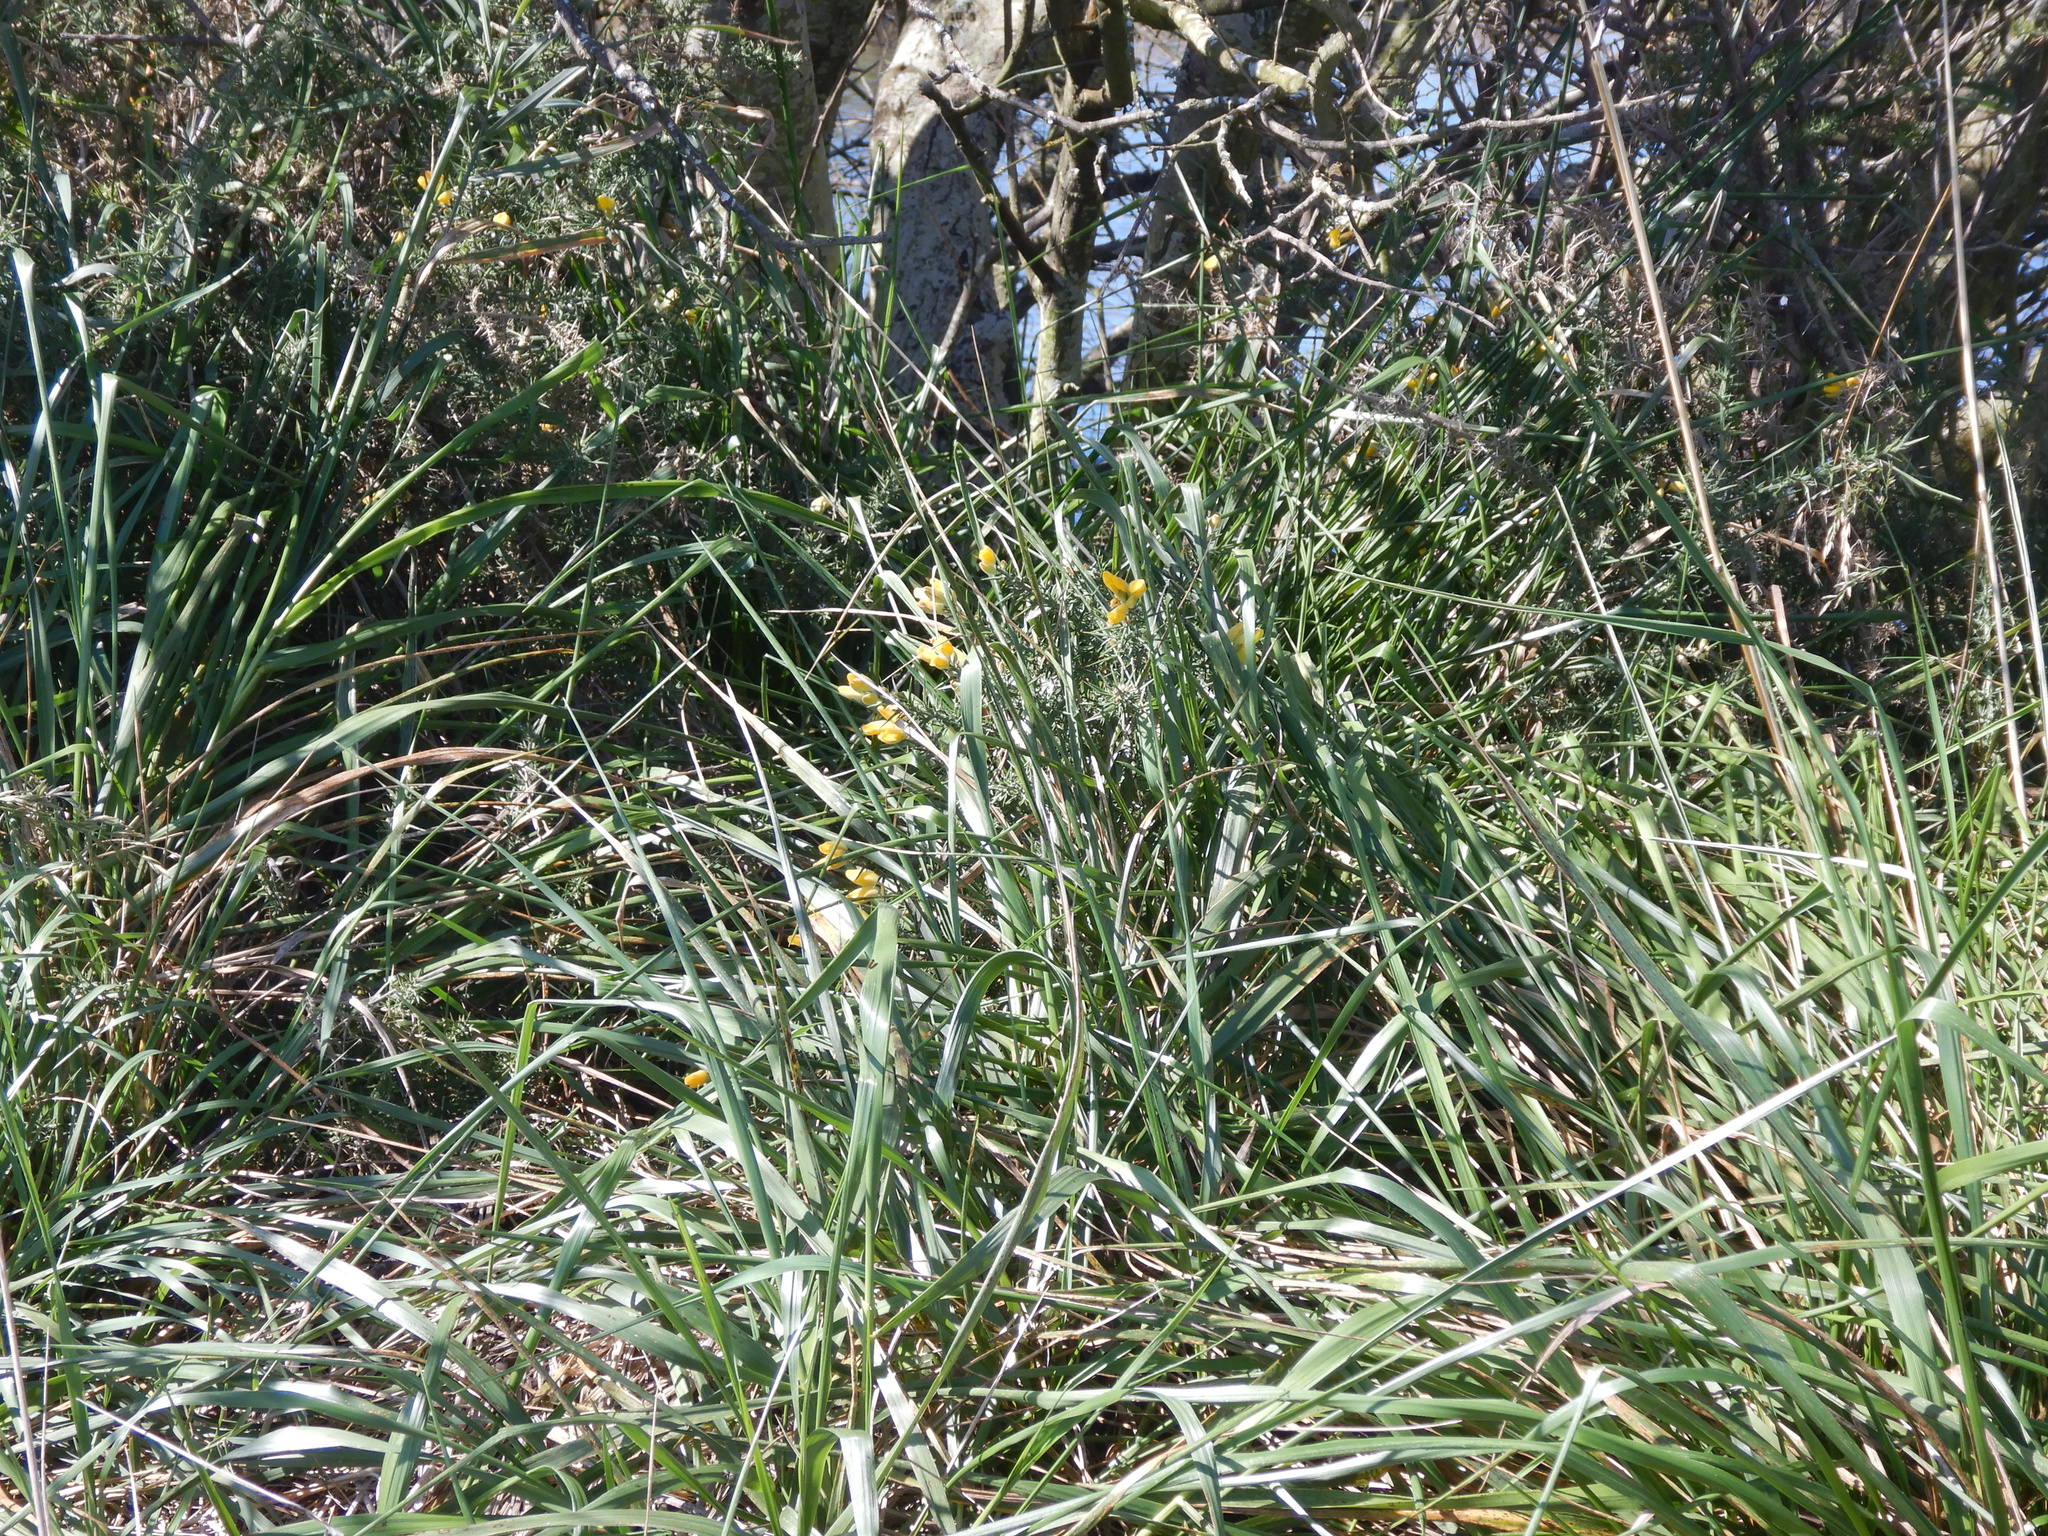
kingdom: Plantae
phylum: Tracheophyta
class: Magnoliopsida
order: Fabales
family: Fabaceae
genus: Ulex
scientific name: Ulex europaeus
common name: Common gorse
